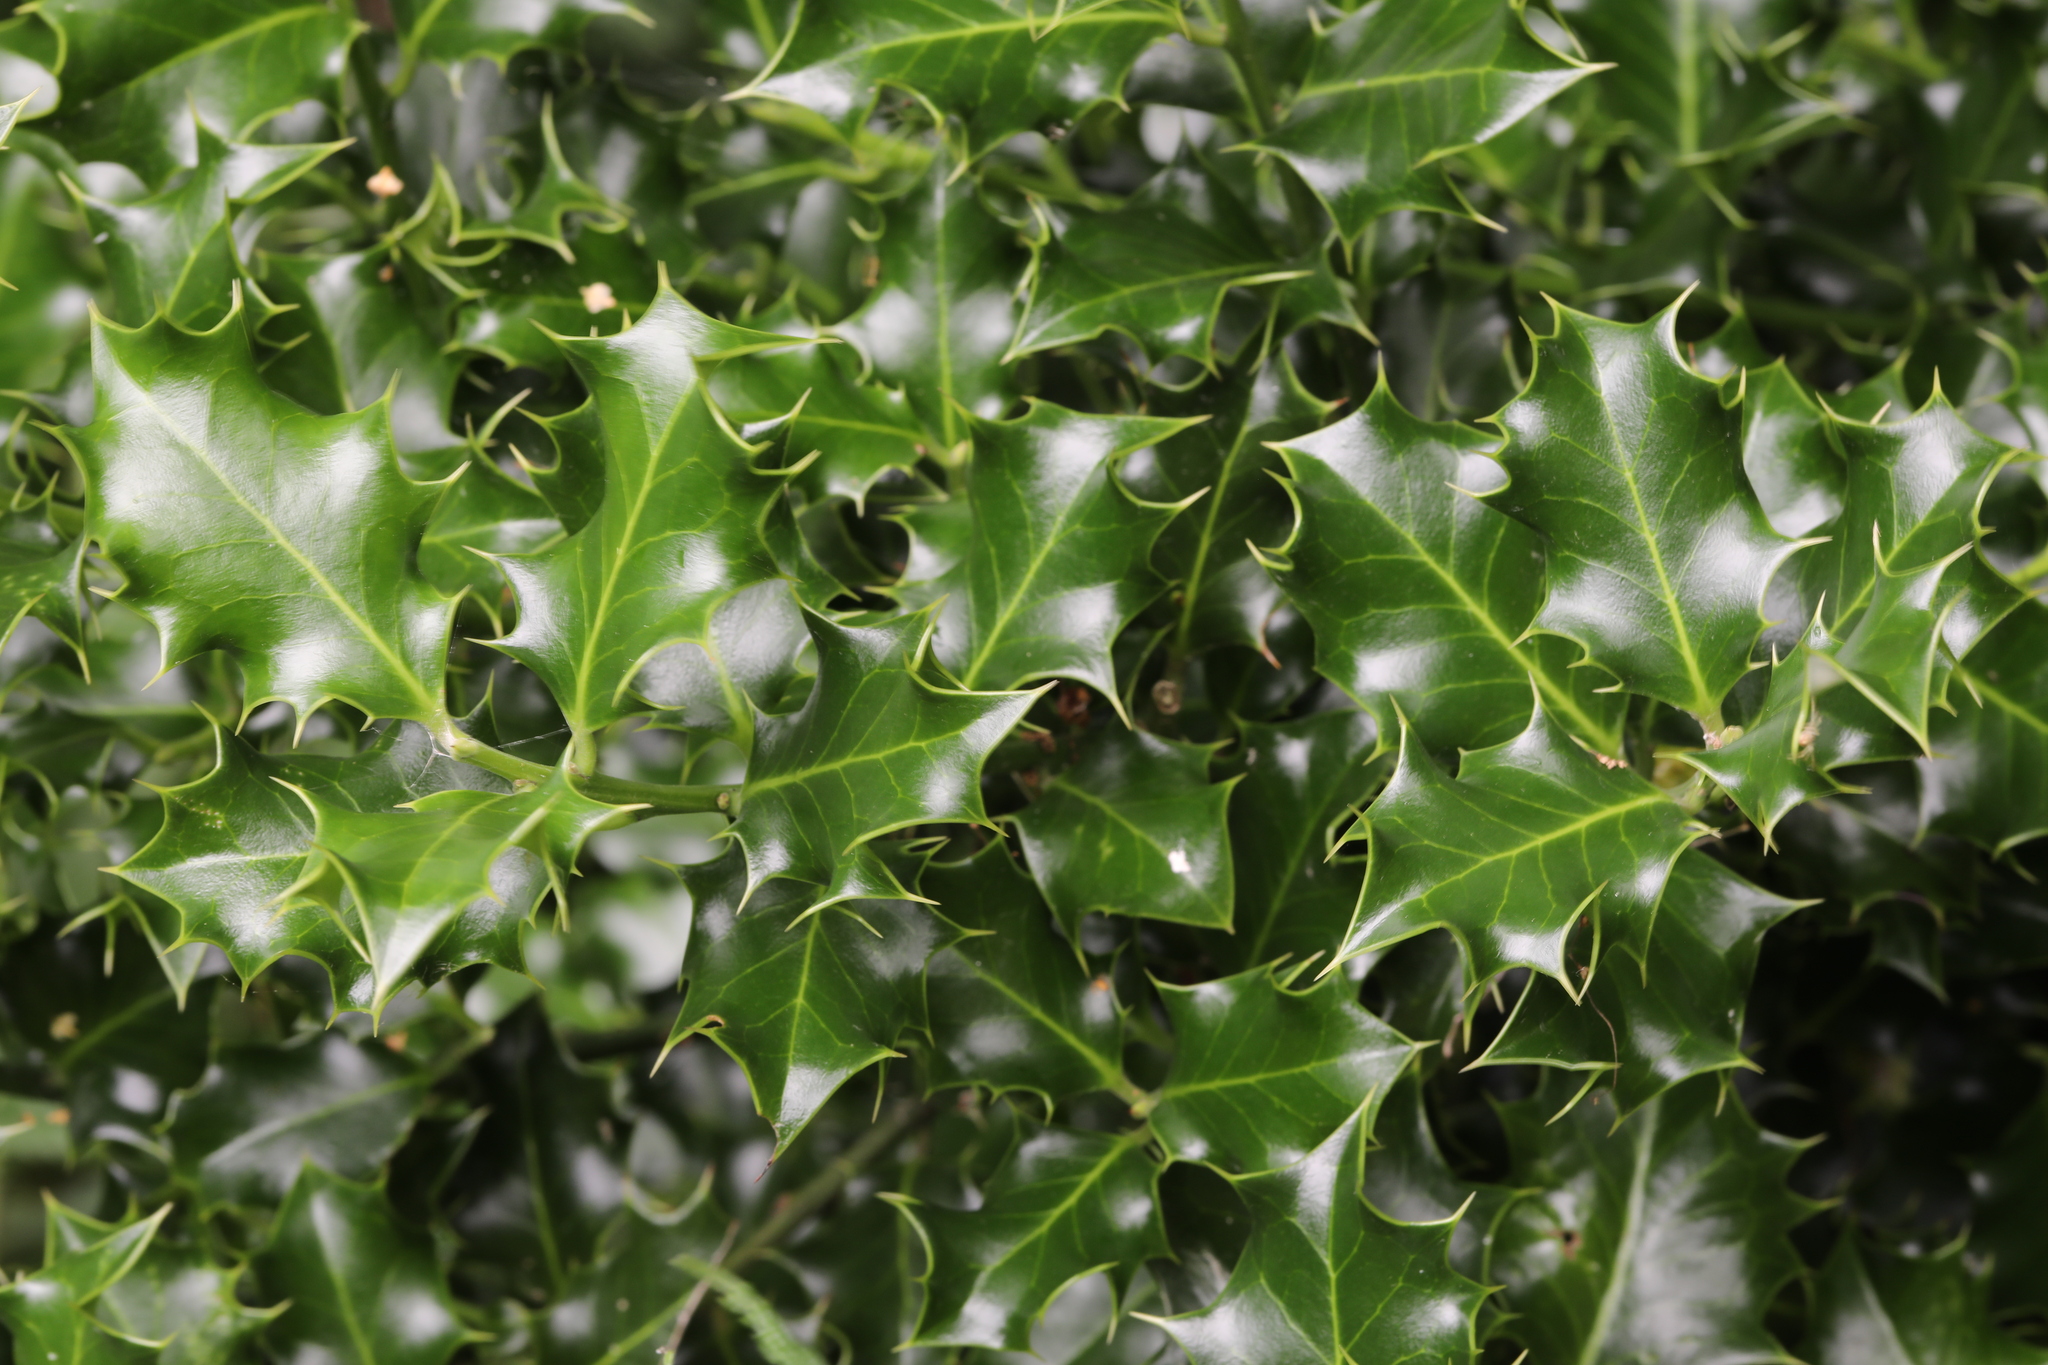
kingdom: Plantae
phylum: Tracheophyta
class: Magnoliopsida
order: Aquifoliales
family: Aquifoliaceae
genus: Ilex
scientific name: Ilex aquifolium
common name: English holly
